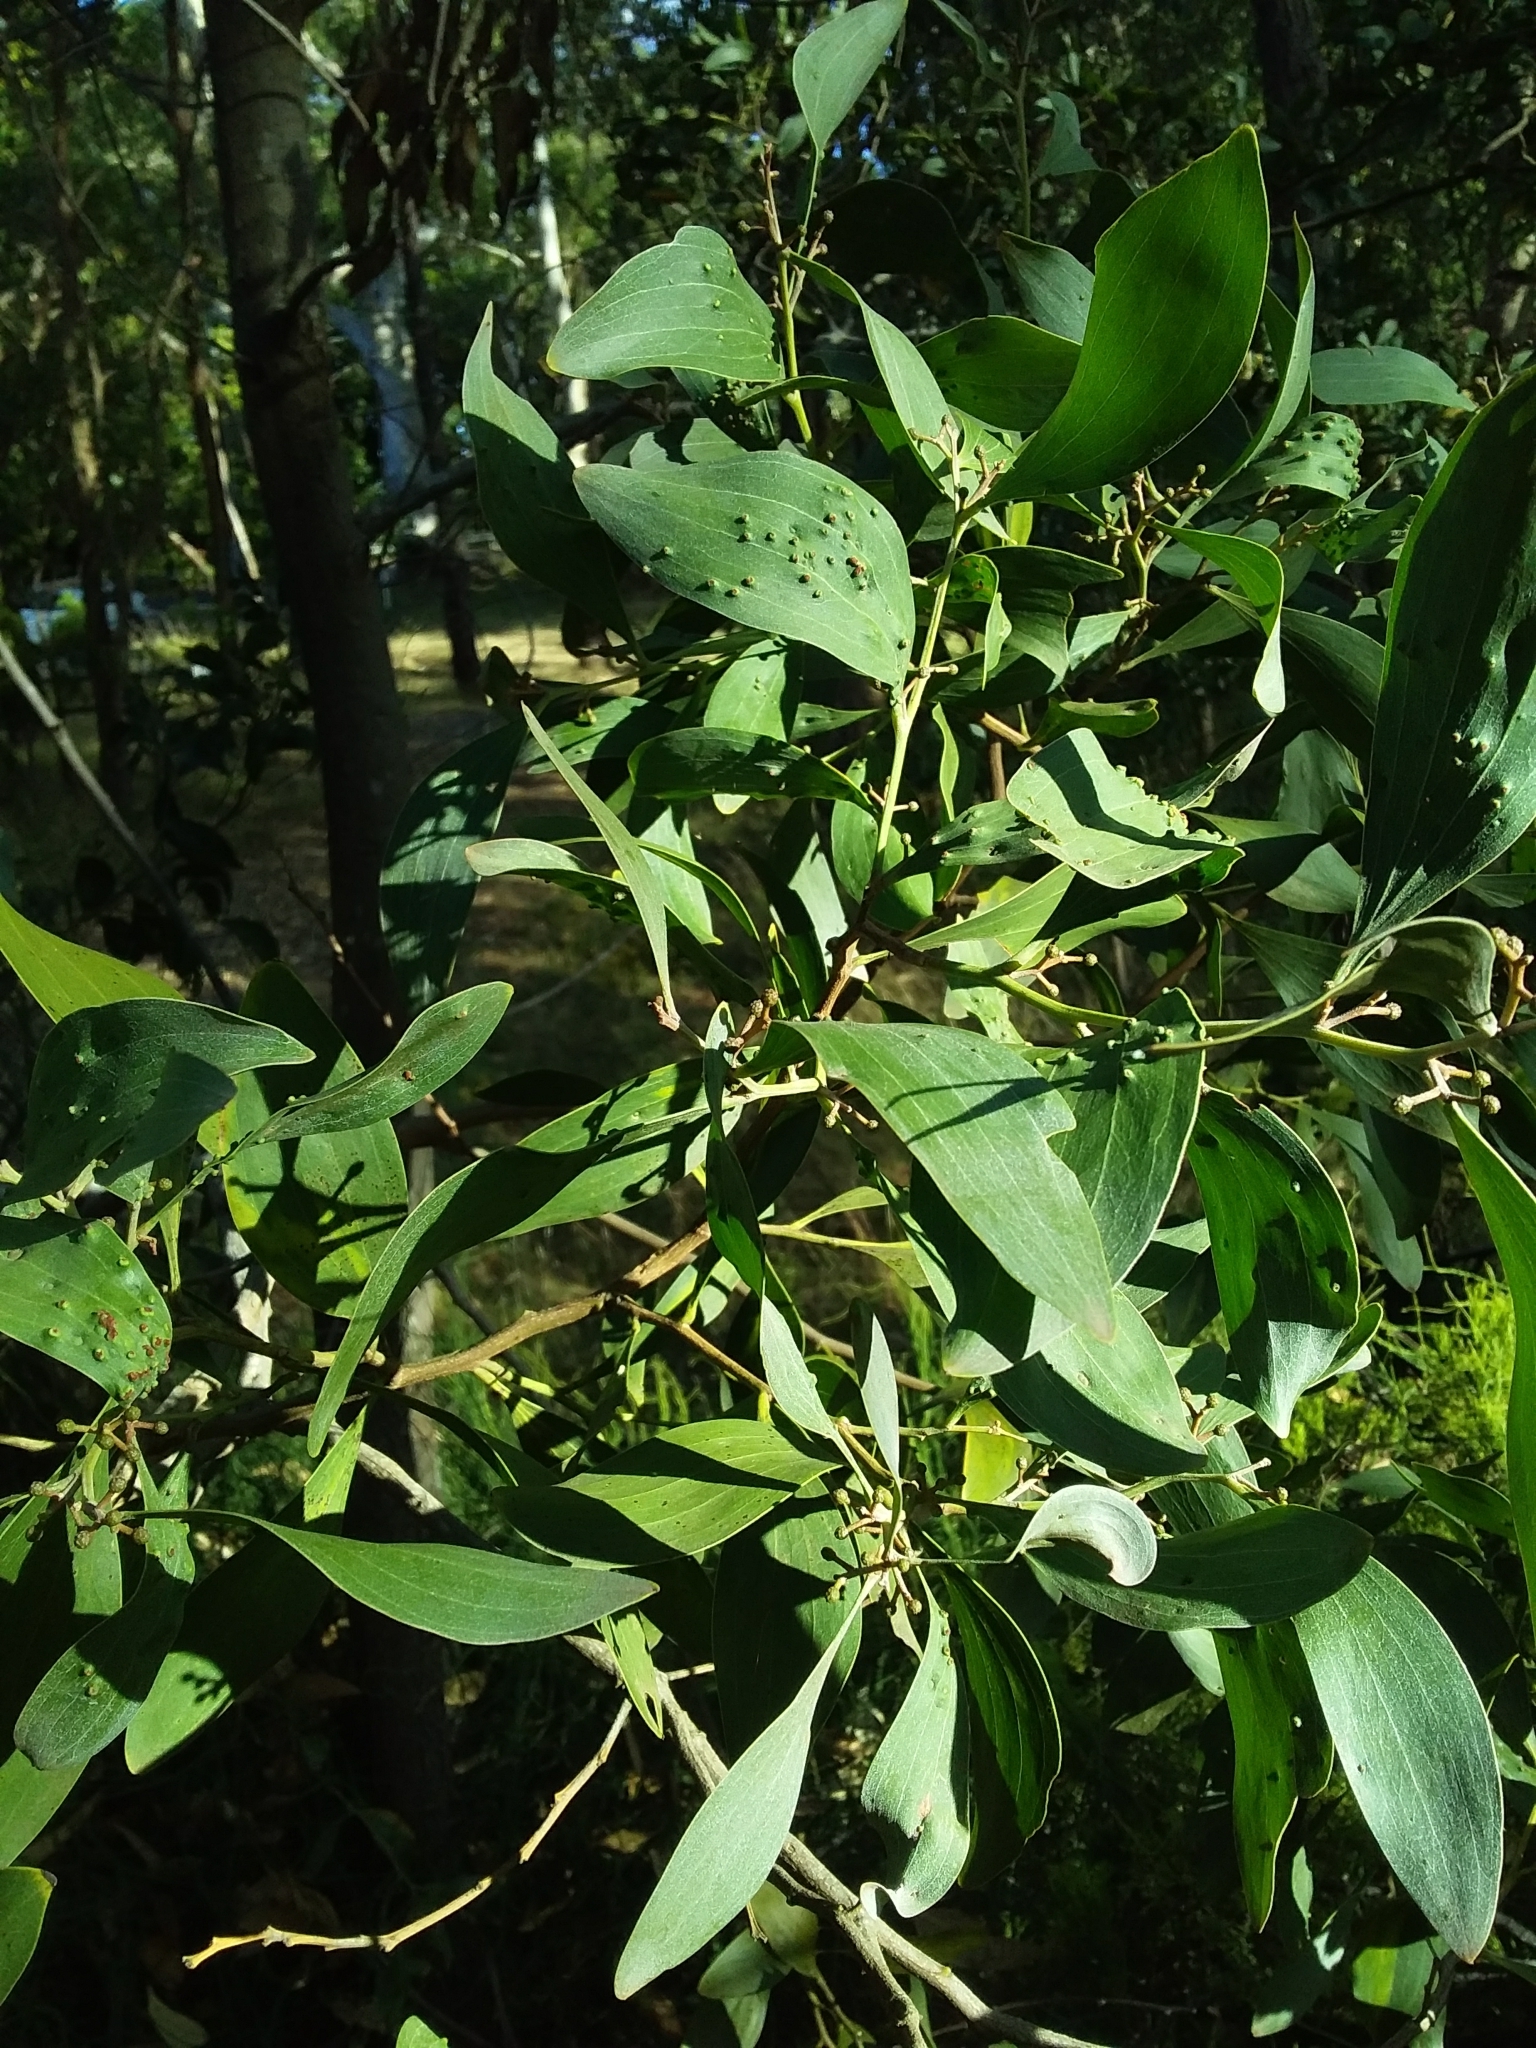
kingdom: Plantae
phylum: Tracheophyta
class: Magnoliopsida
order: Fabales
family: Fabaceae
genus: Acacia
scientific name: Acacia melanoxylon
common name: Blackwood
